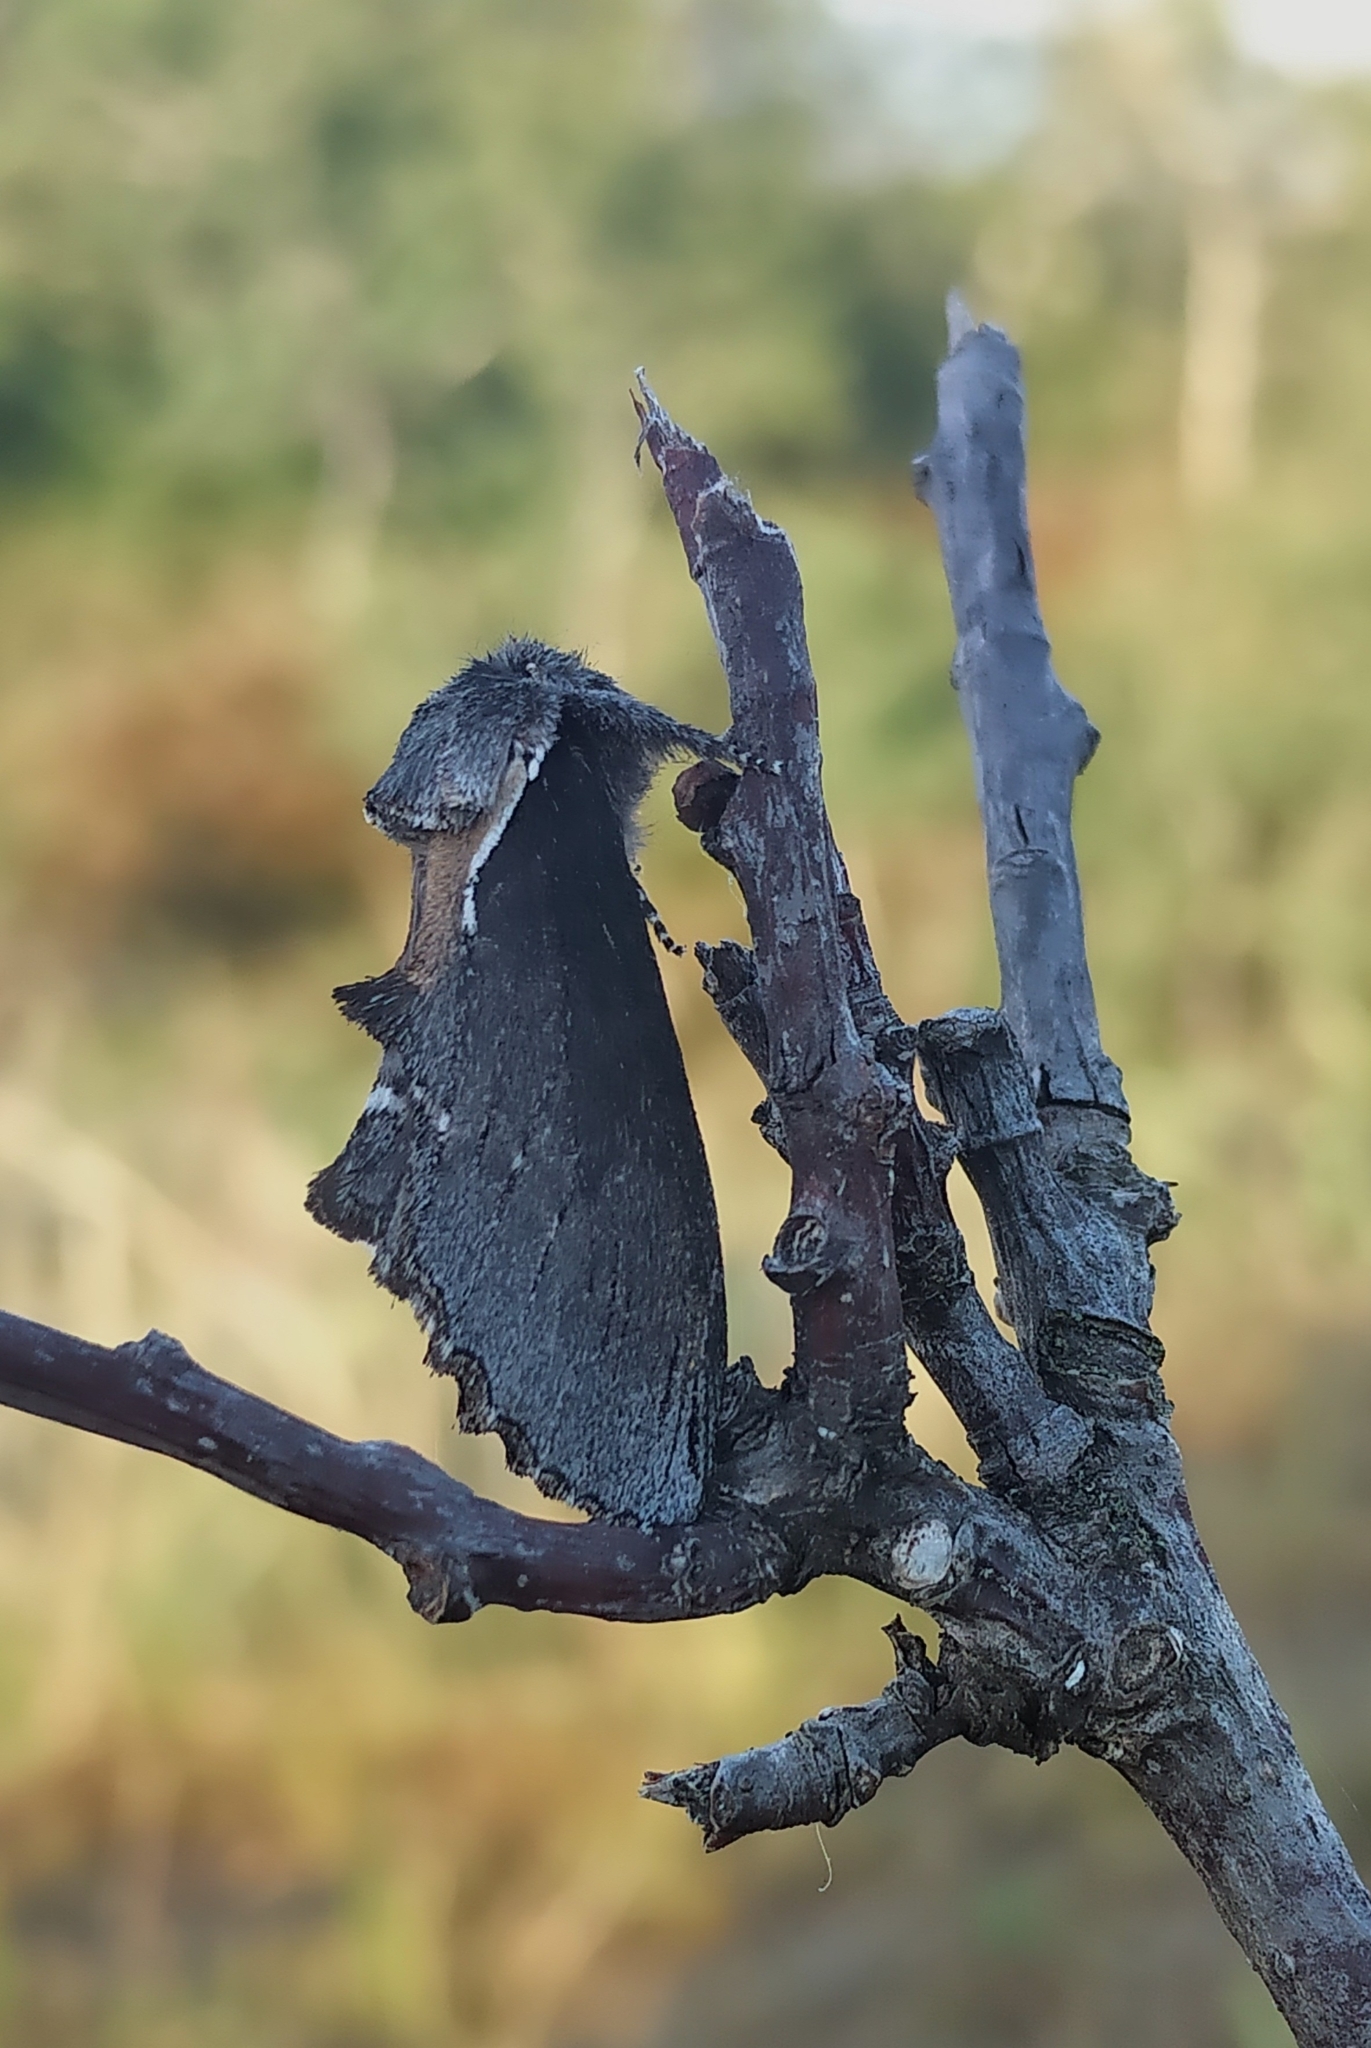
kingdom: Animalia
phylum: Arthropoda
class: Insecta
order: Lepidoptera
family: Notodontidae
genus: Pheosidea
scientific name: Pheosidea elegans
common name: Elegant prominent
